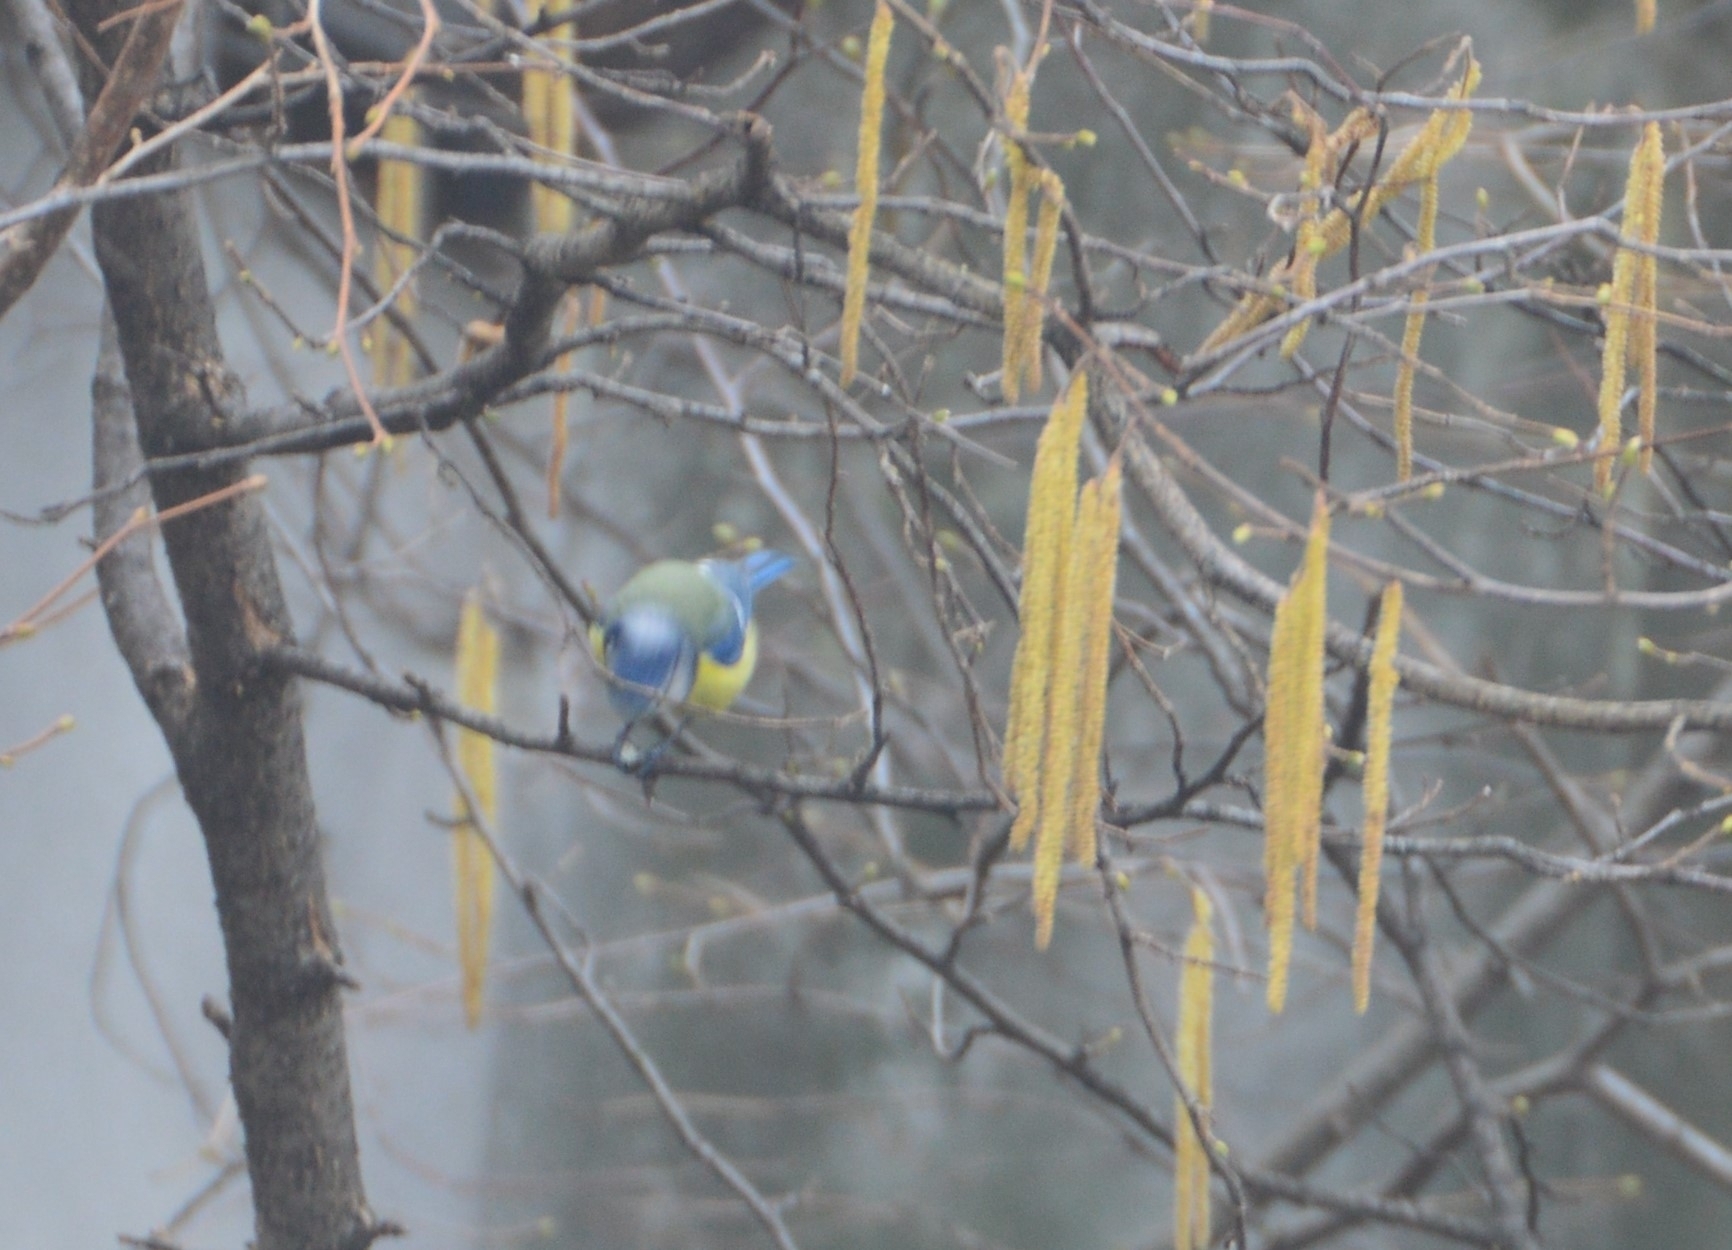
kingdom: Animalia
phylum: Chordata
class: Aves
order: Passeriformes
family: Paridae
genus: Cyanistes
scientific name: Cyanistes caeruleus
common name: Eurasian blue tit
